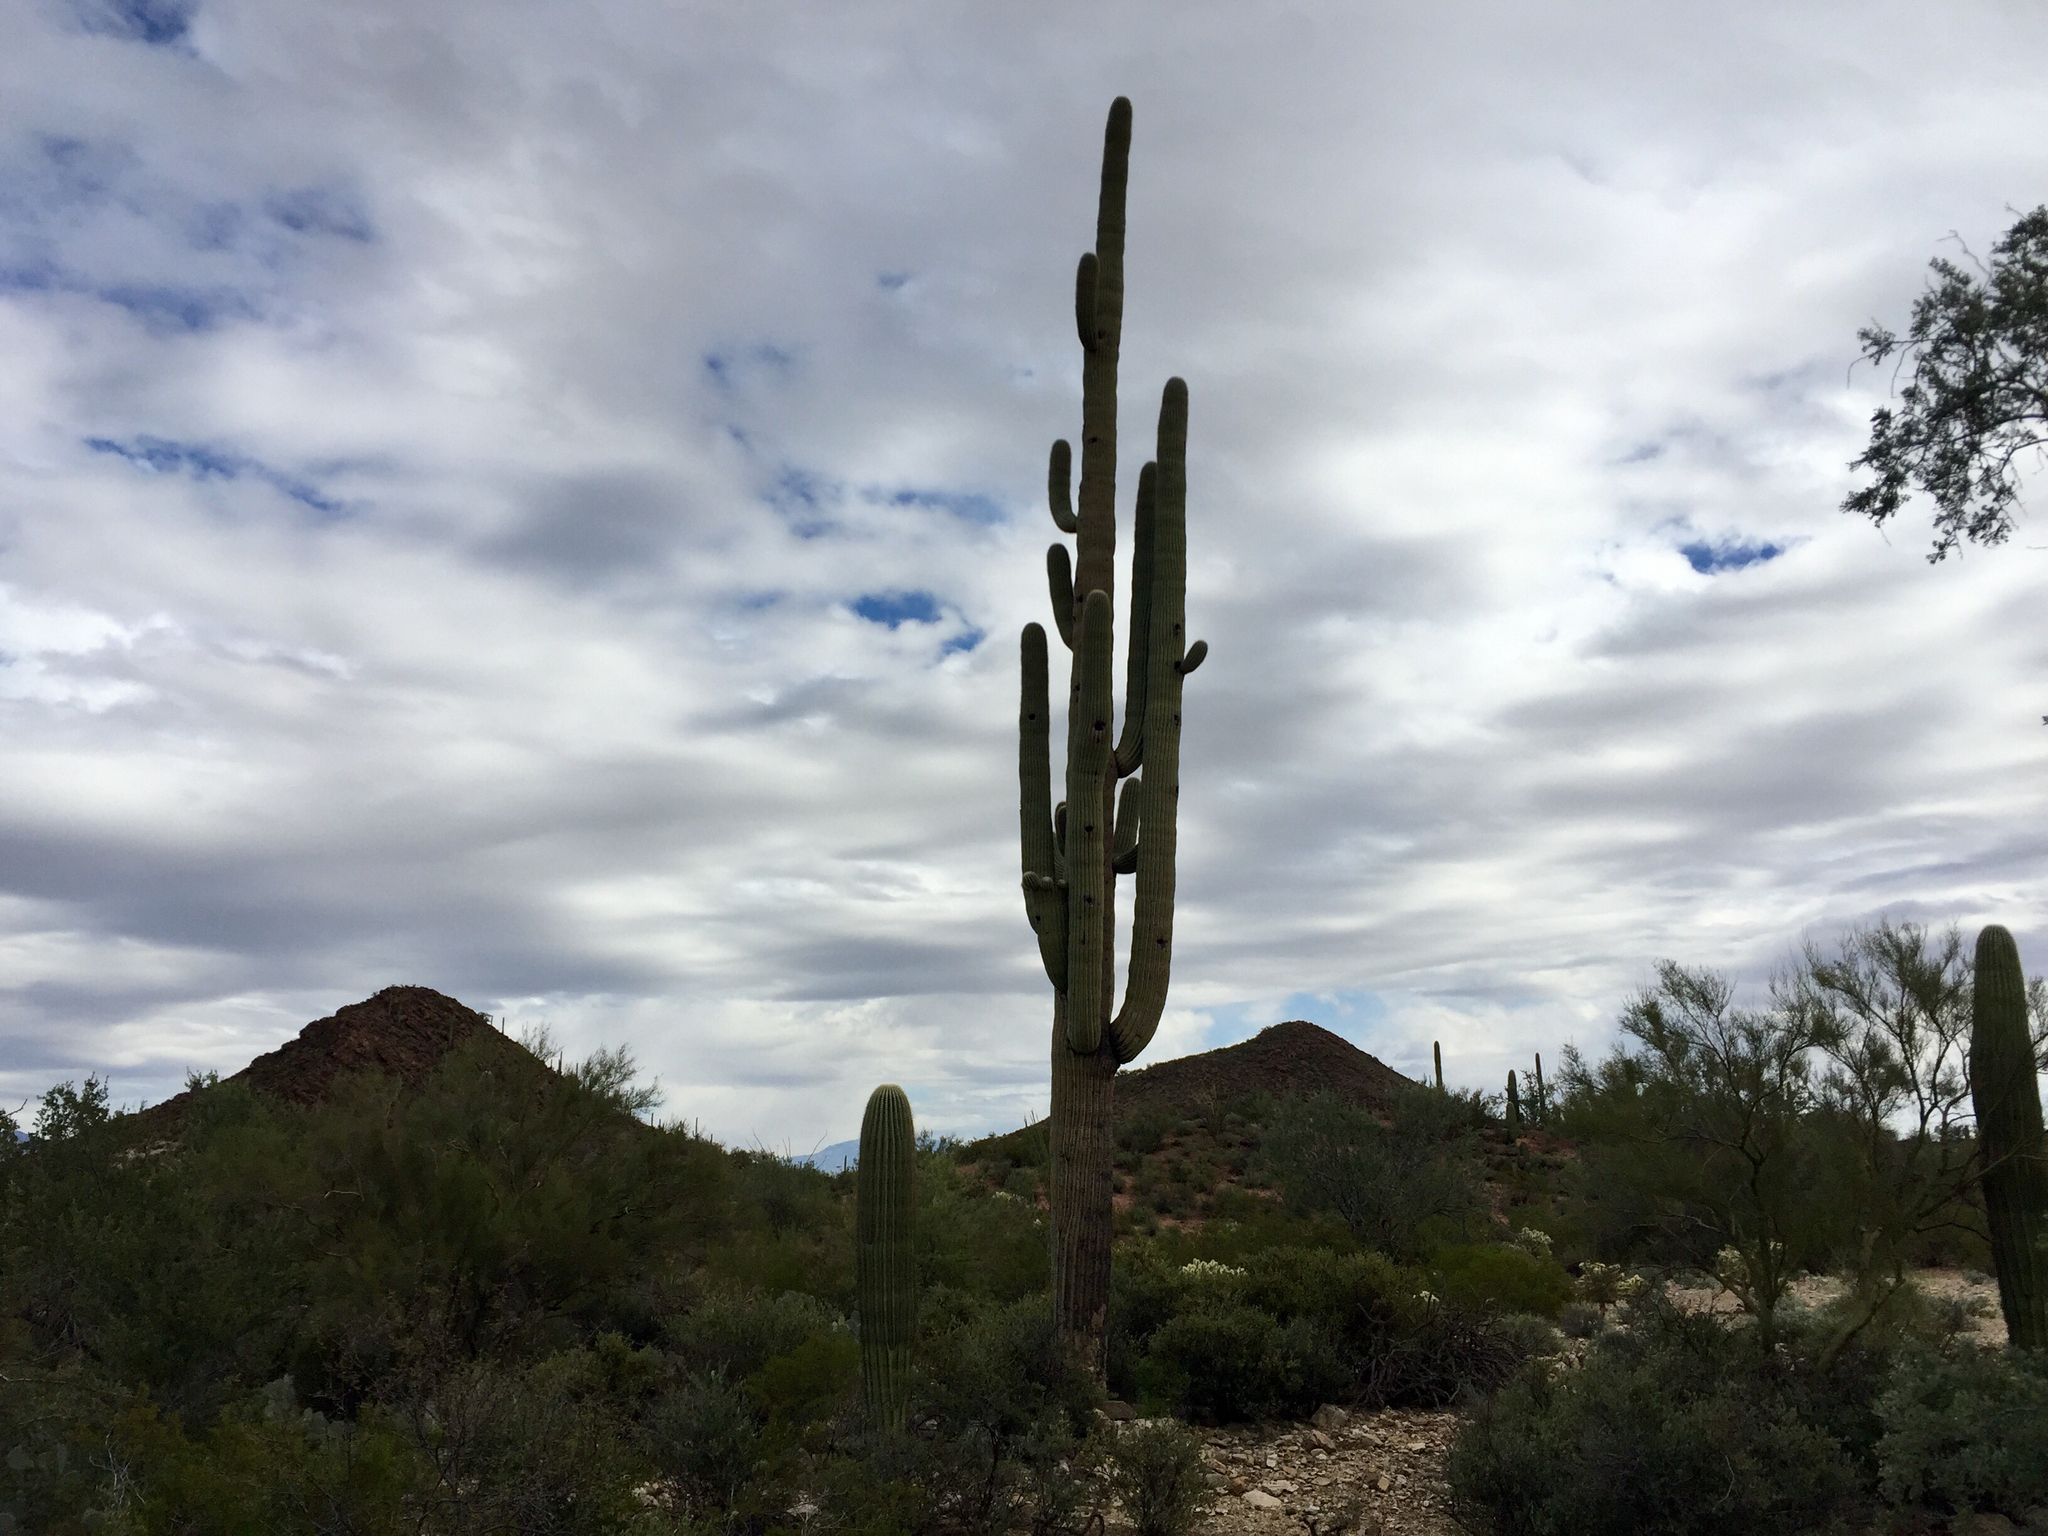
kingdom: Plantae
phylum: Tracheophyta
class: Magnoliopsida
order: Caryophyllales
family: Cactaceae
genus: Carnegiea
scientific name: Carnegiea gigantea
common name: Saguaro
